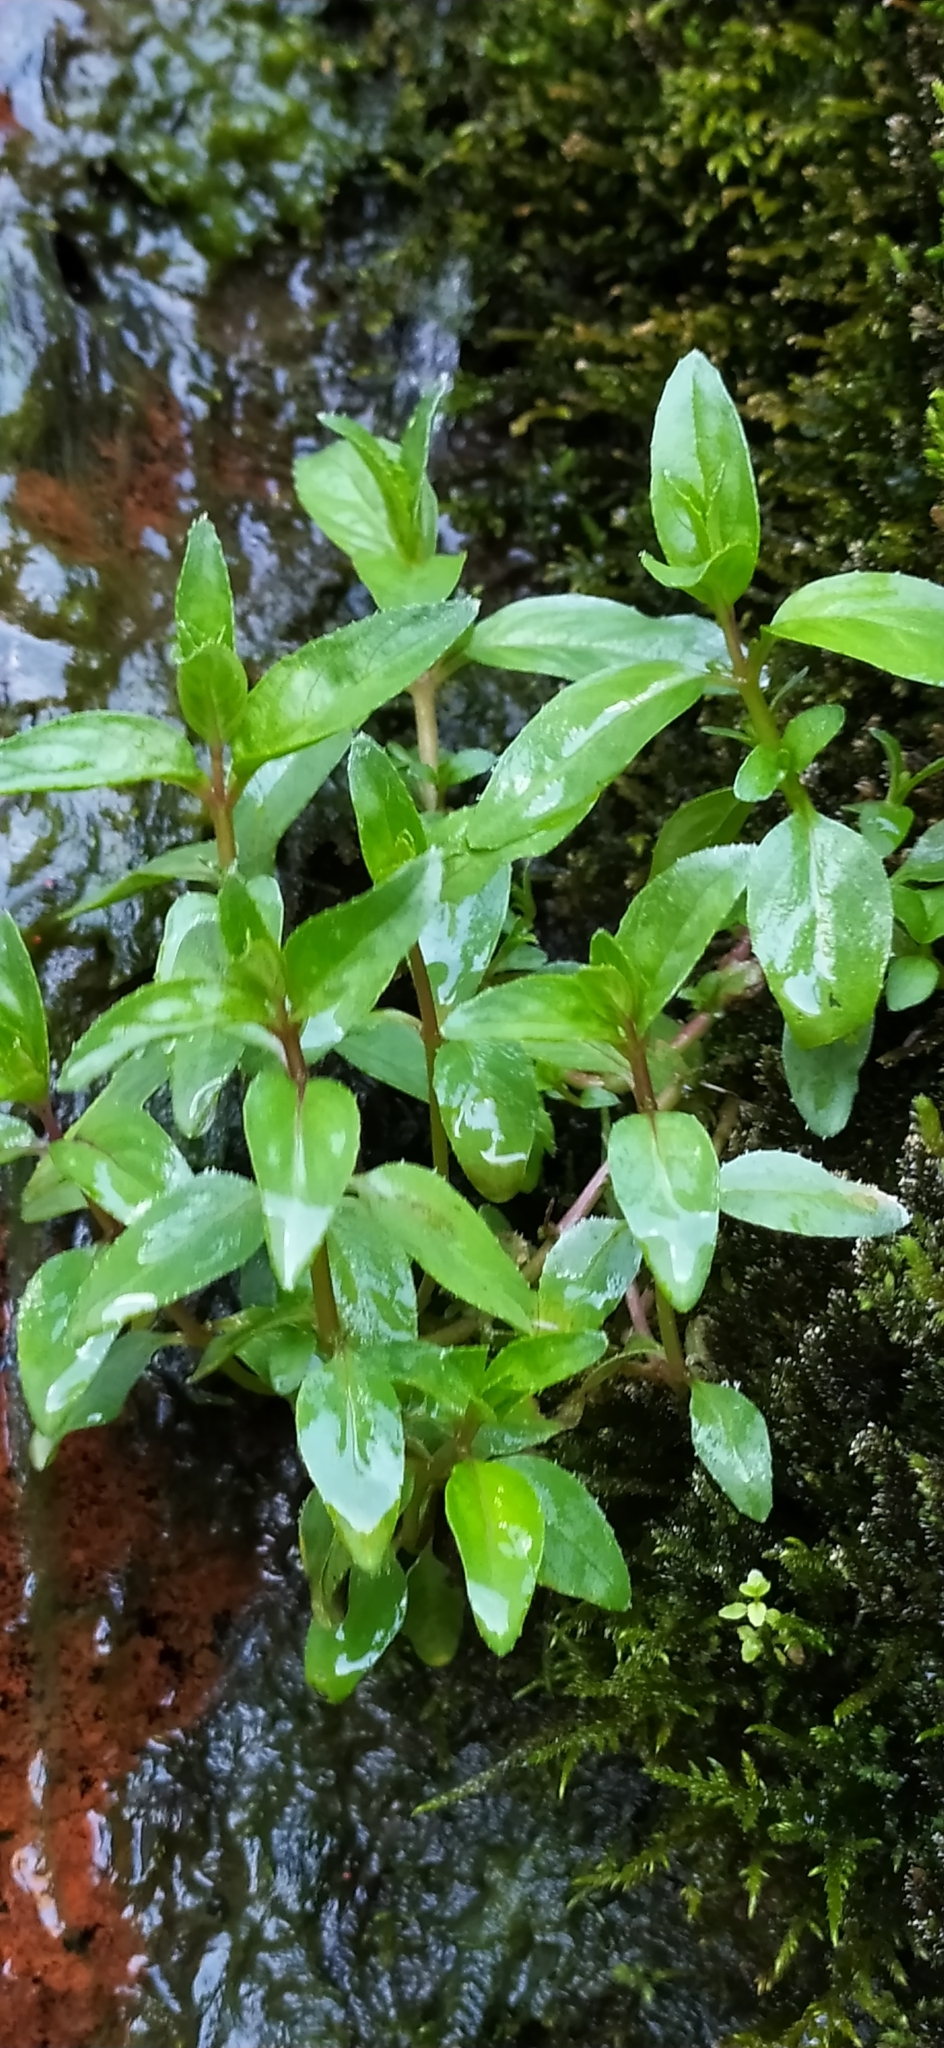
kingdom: Plantae
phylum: Tracheophyta
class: Magnoliopsida
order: Lamiales
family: Plantaginaceae
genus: Veronica
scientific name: Veronica beccabunga
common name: Brooklime
